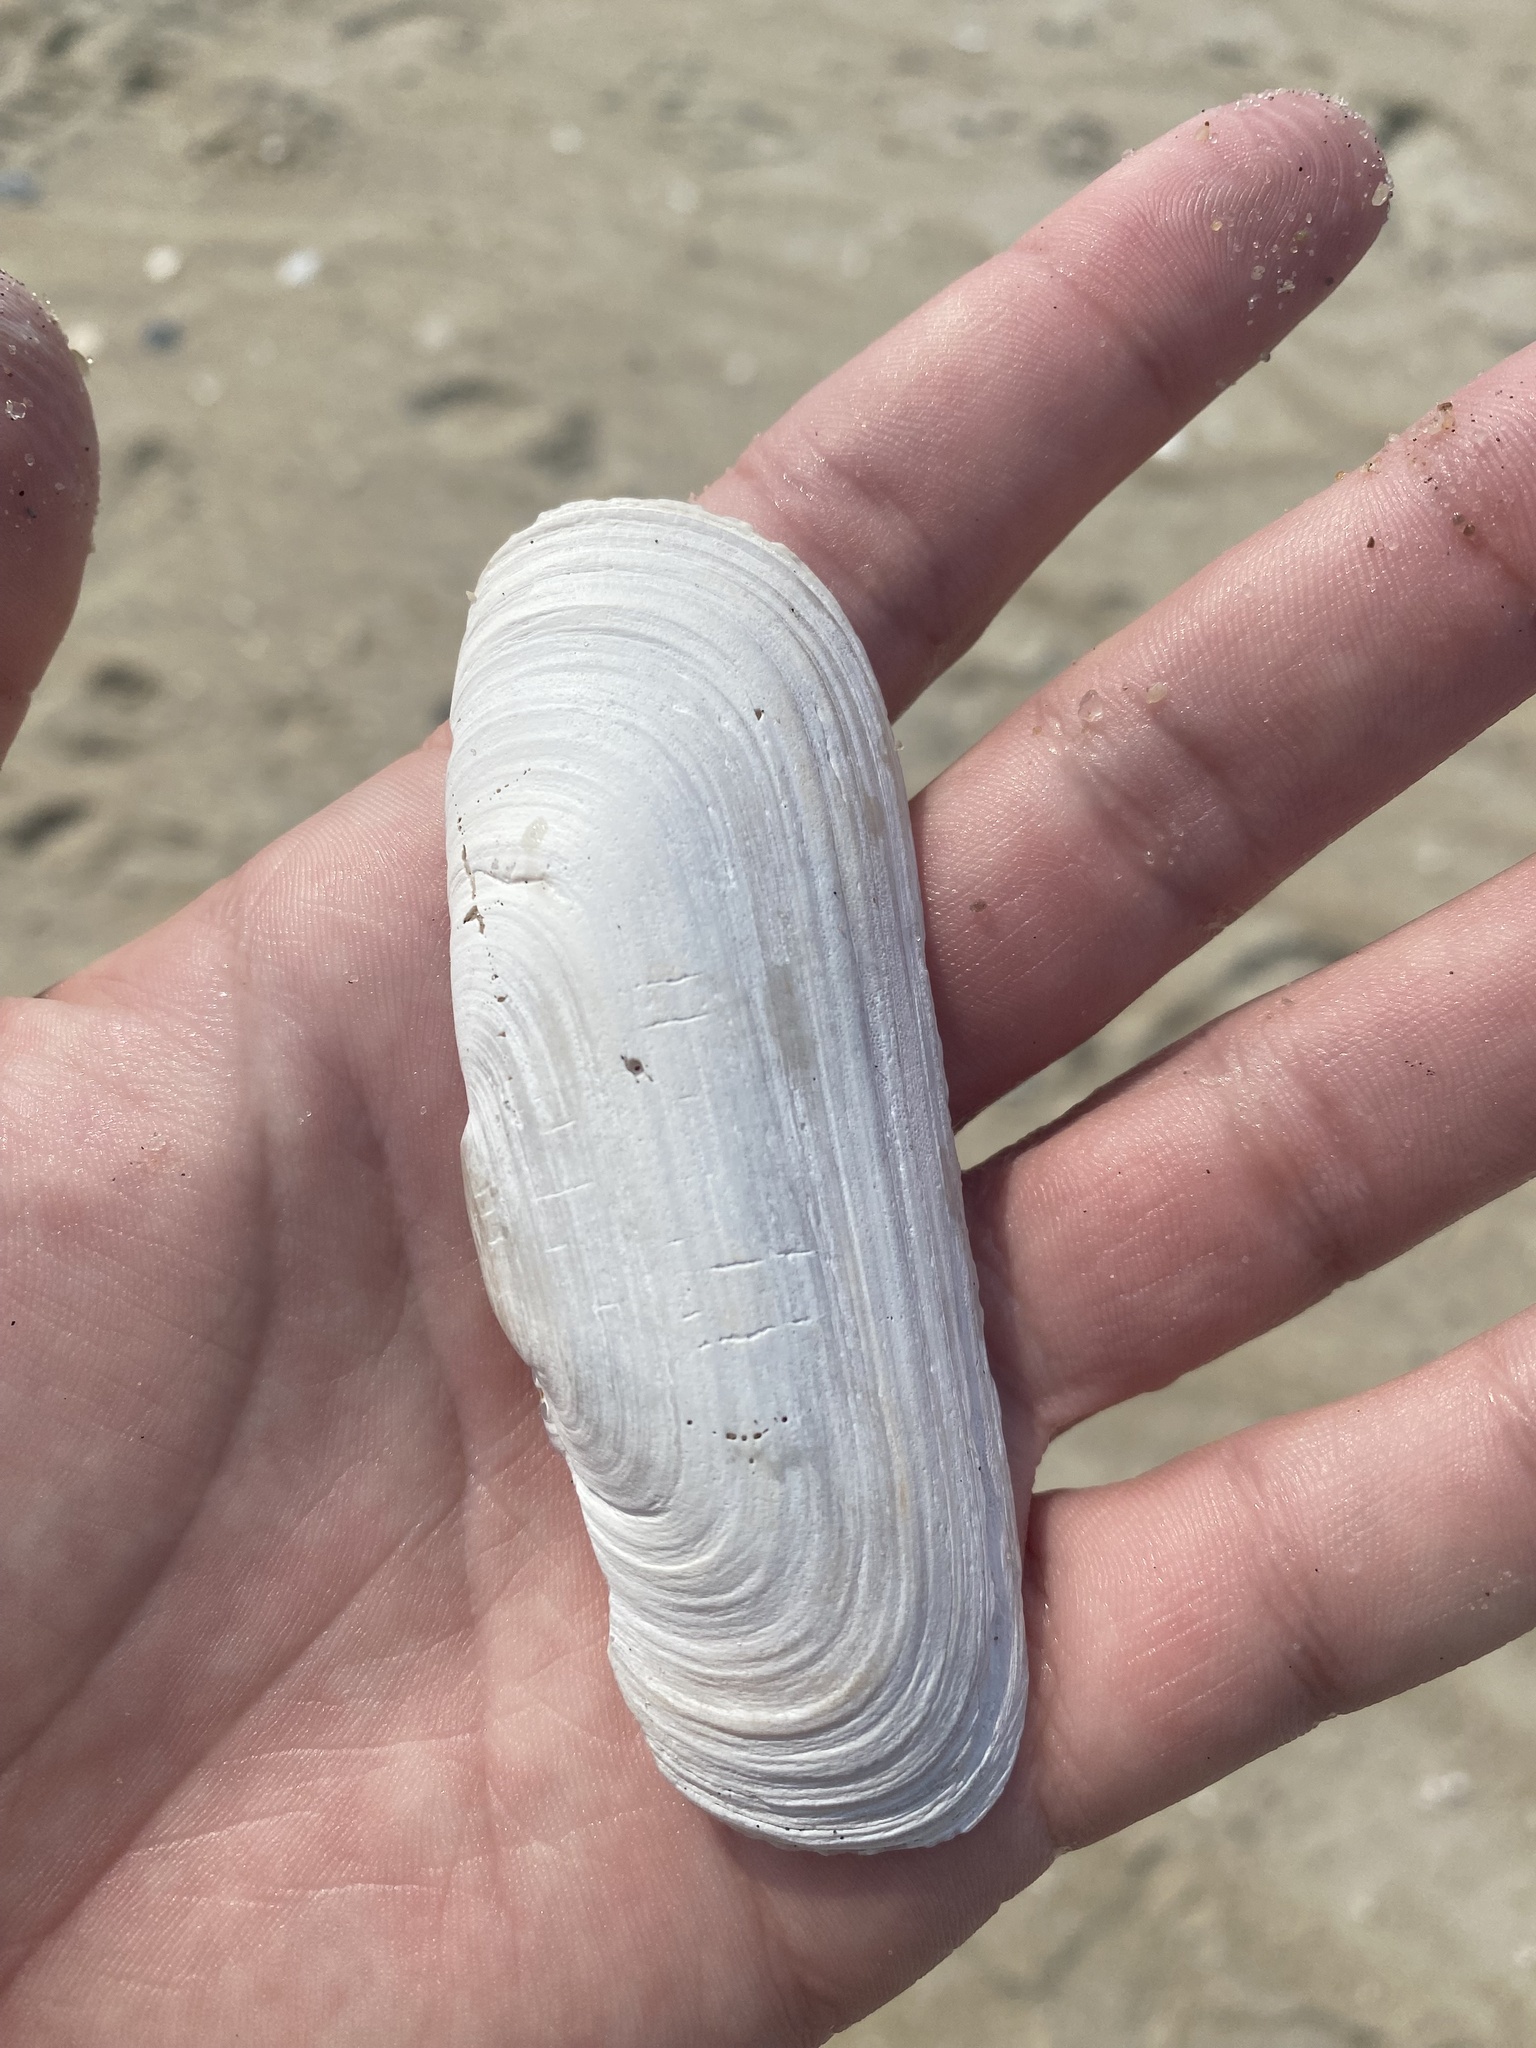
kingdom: Animalia
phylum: Mollusca
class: Bivalvia
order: Cardiida
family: Solecurtidae
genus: Tagelus
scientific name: Tagelus plebeius
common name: Stout tagelus
